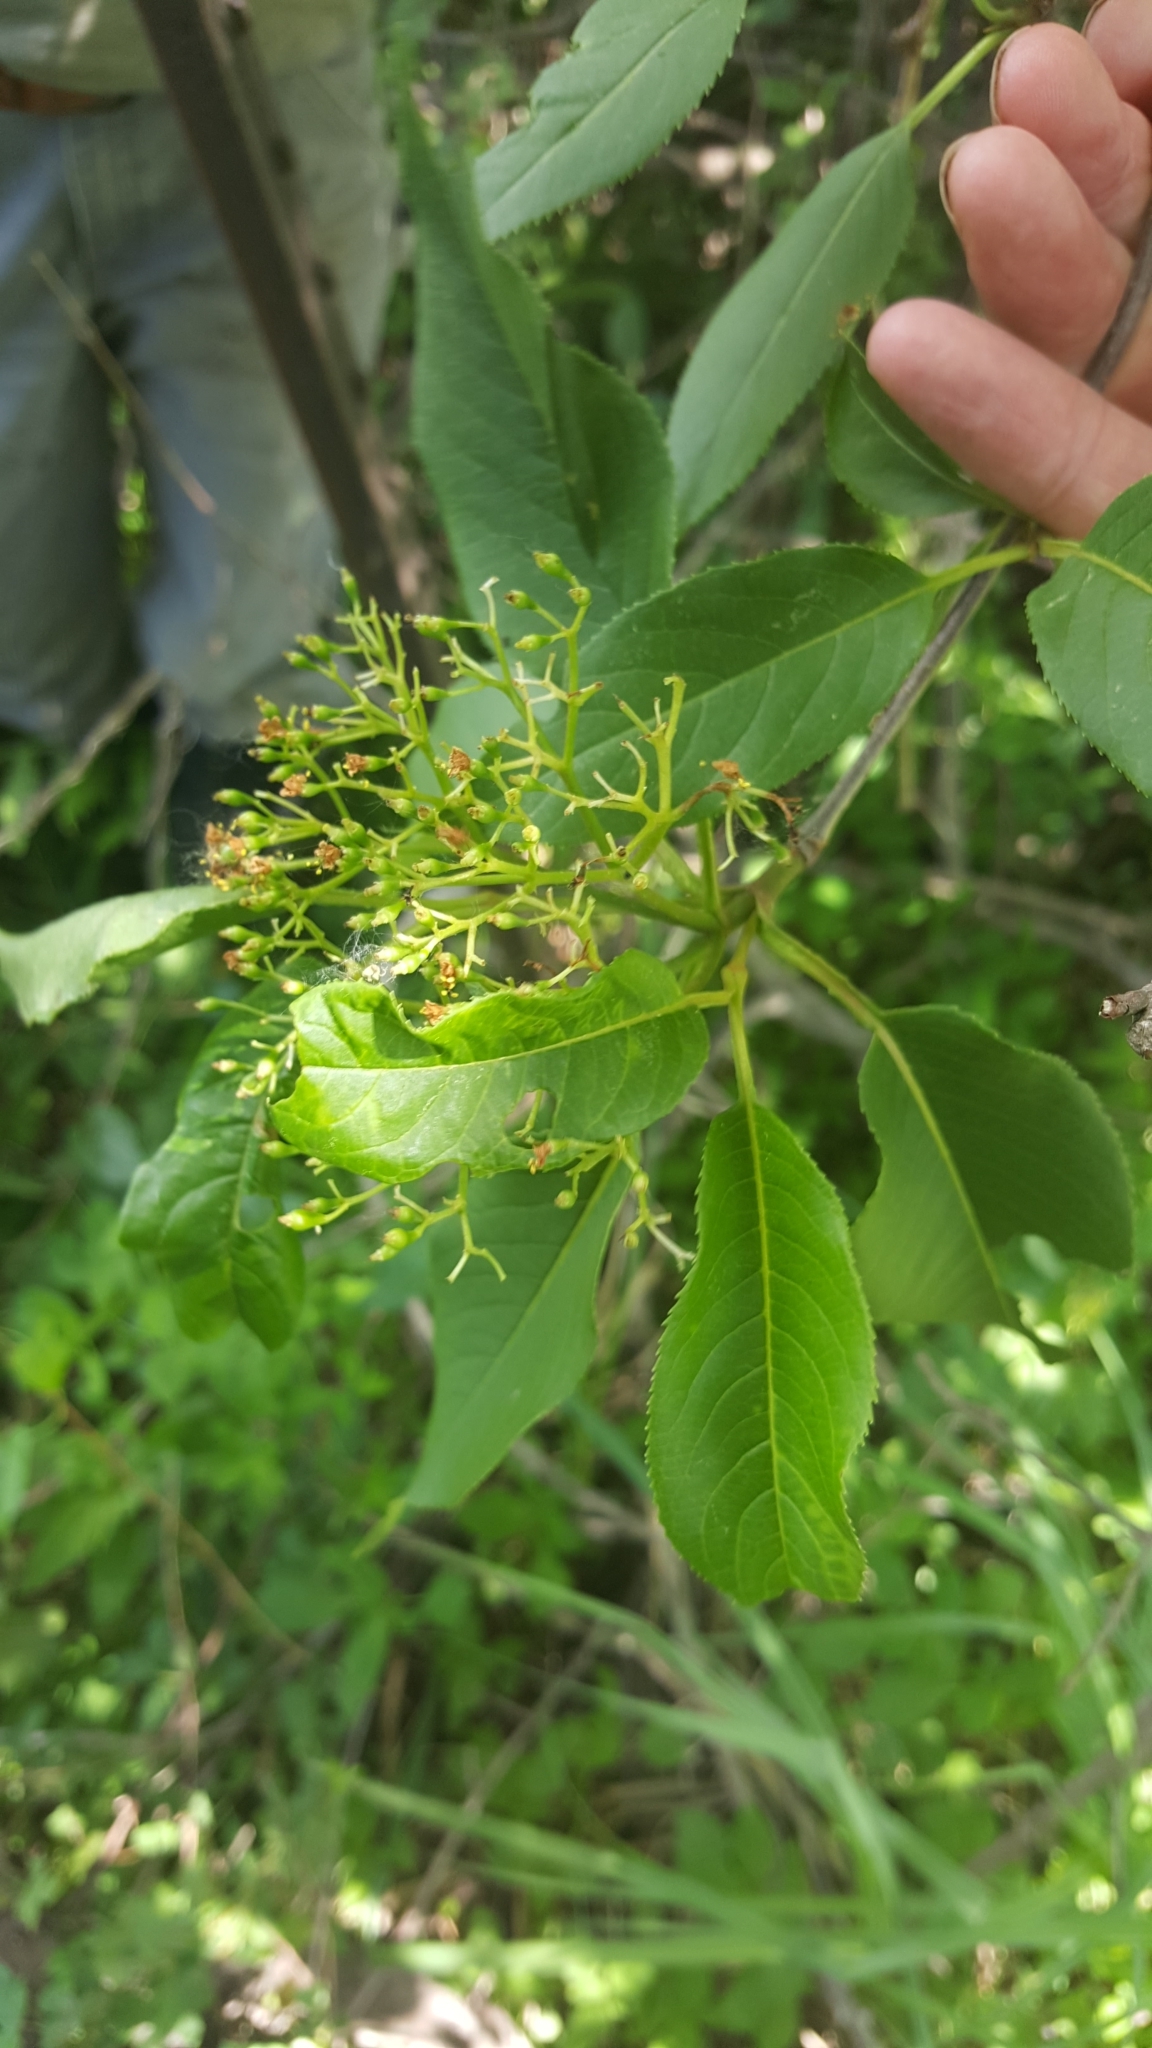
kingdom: Plantae
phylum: Tracheophyta
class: Magnoliopsida
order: Dipsacales
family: Viburnaceae
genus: Viburnum
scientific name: Viburnum lentago
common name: Black haw
